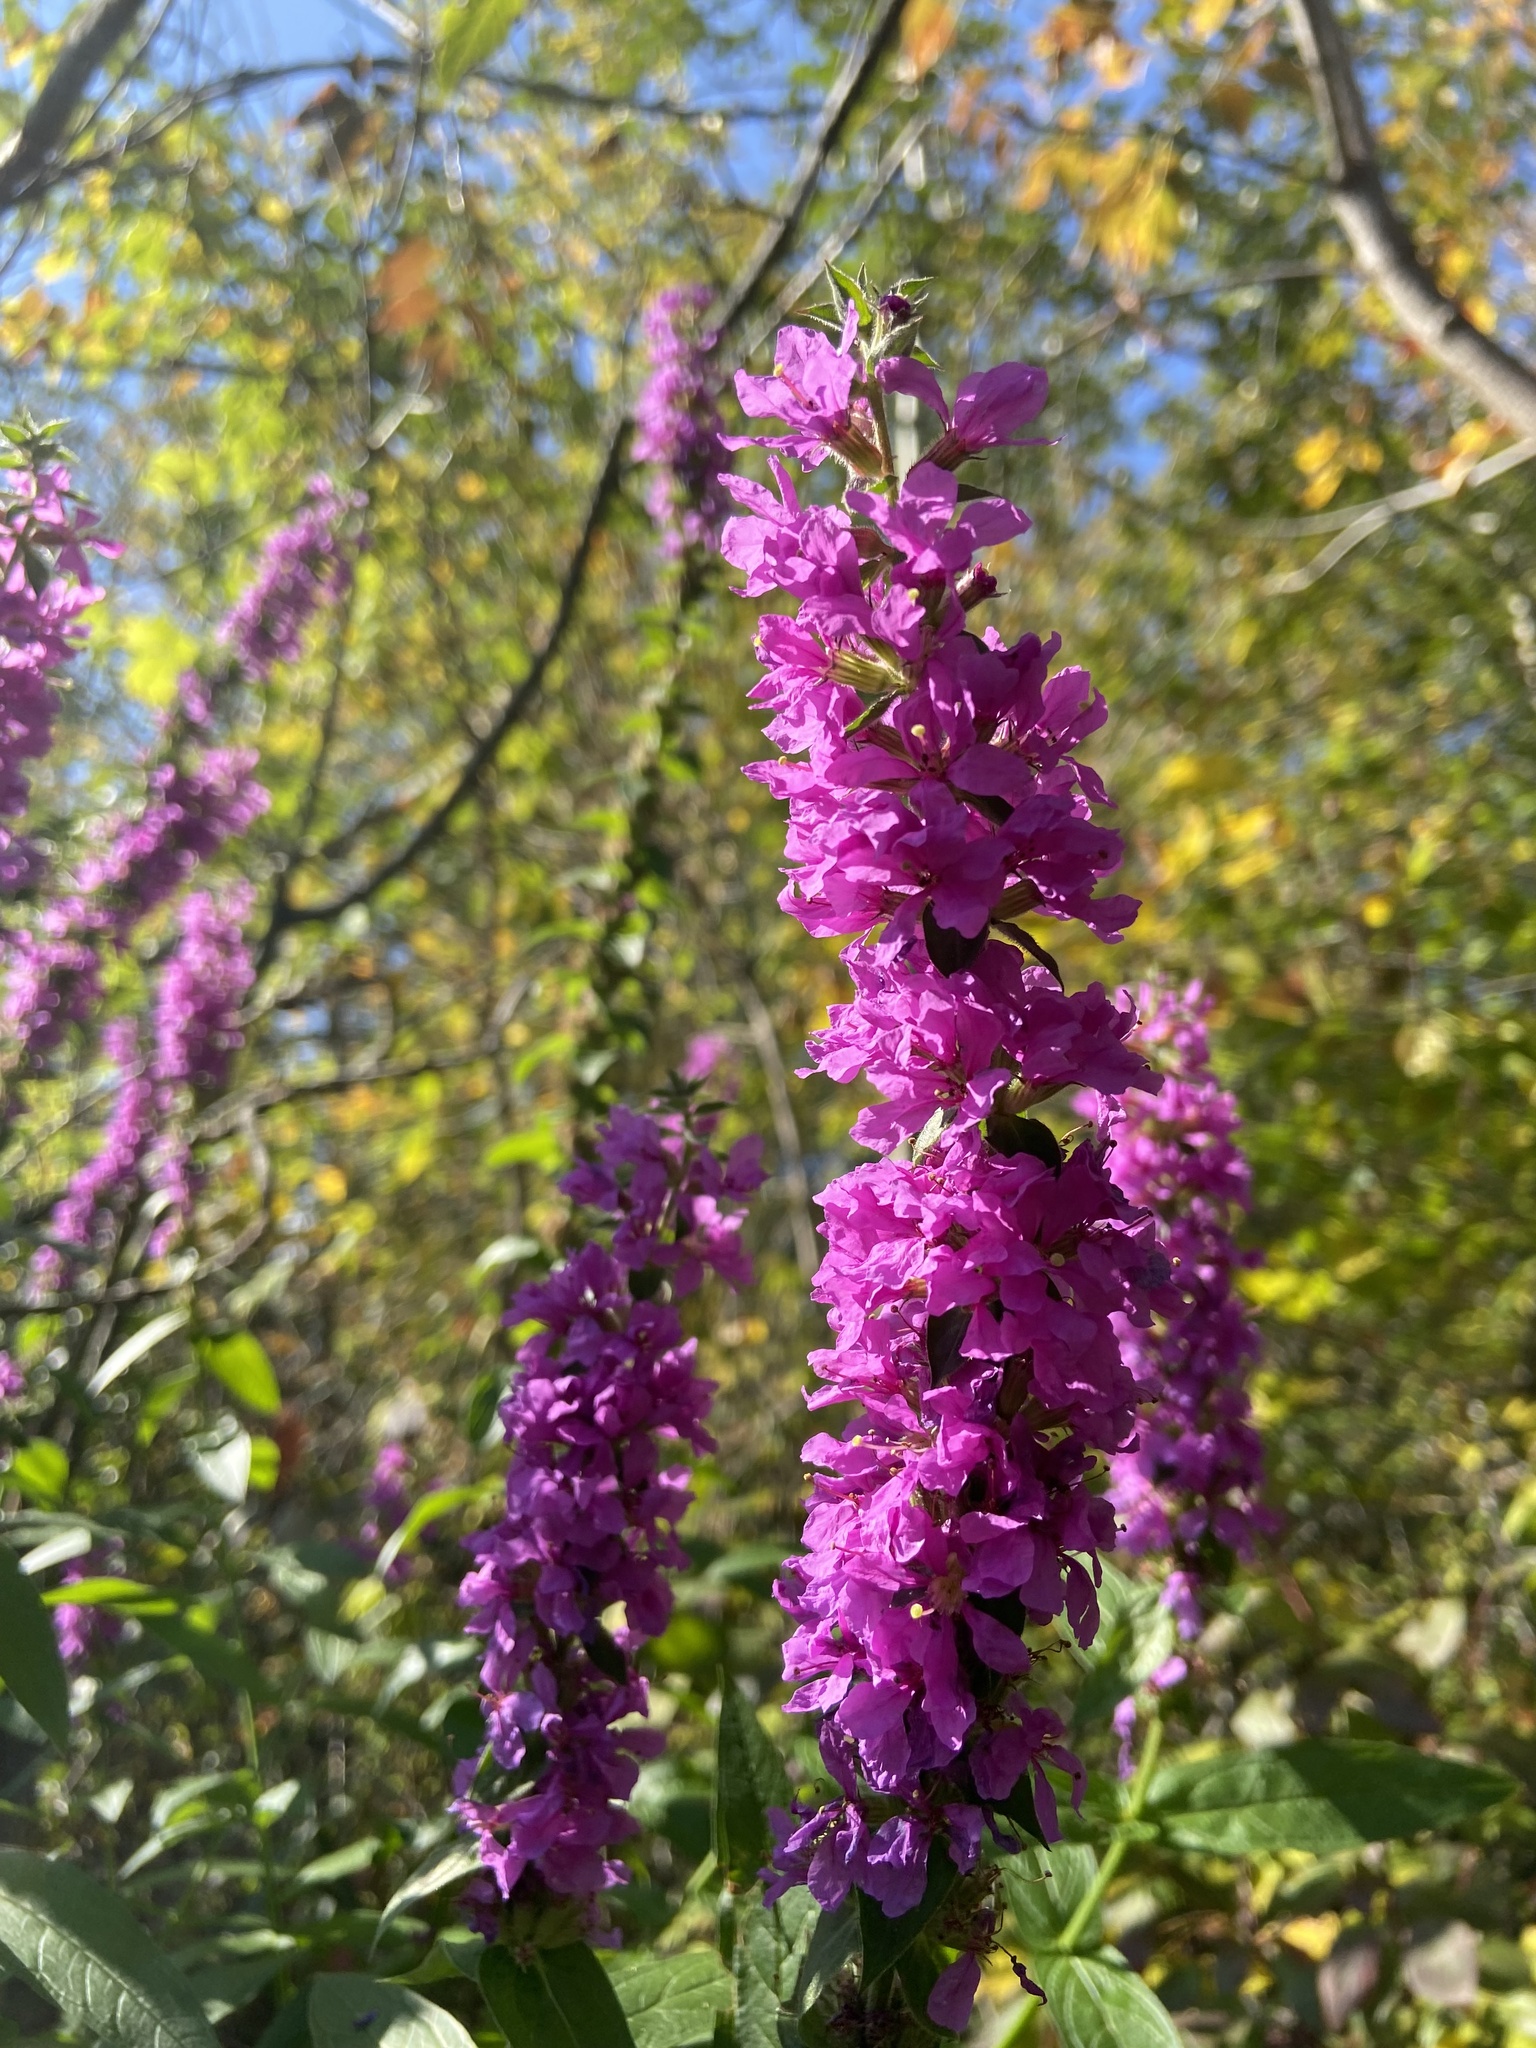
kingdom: Plantae
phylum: Tracheophyta
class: Magnoliopsida
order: Myrtales
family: Lythraceae
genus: Lythrum
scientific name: Lythrum salicaria
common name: Purple loosestrife
